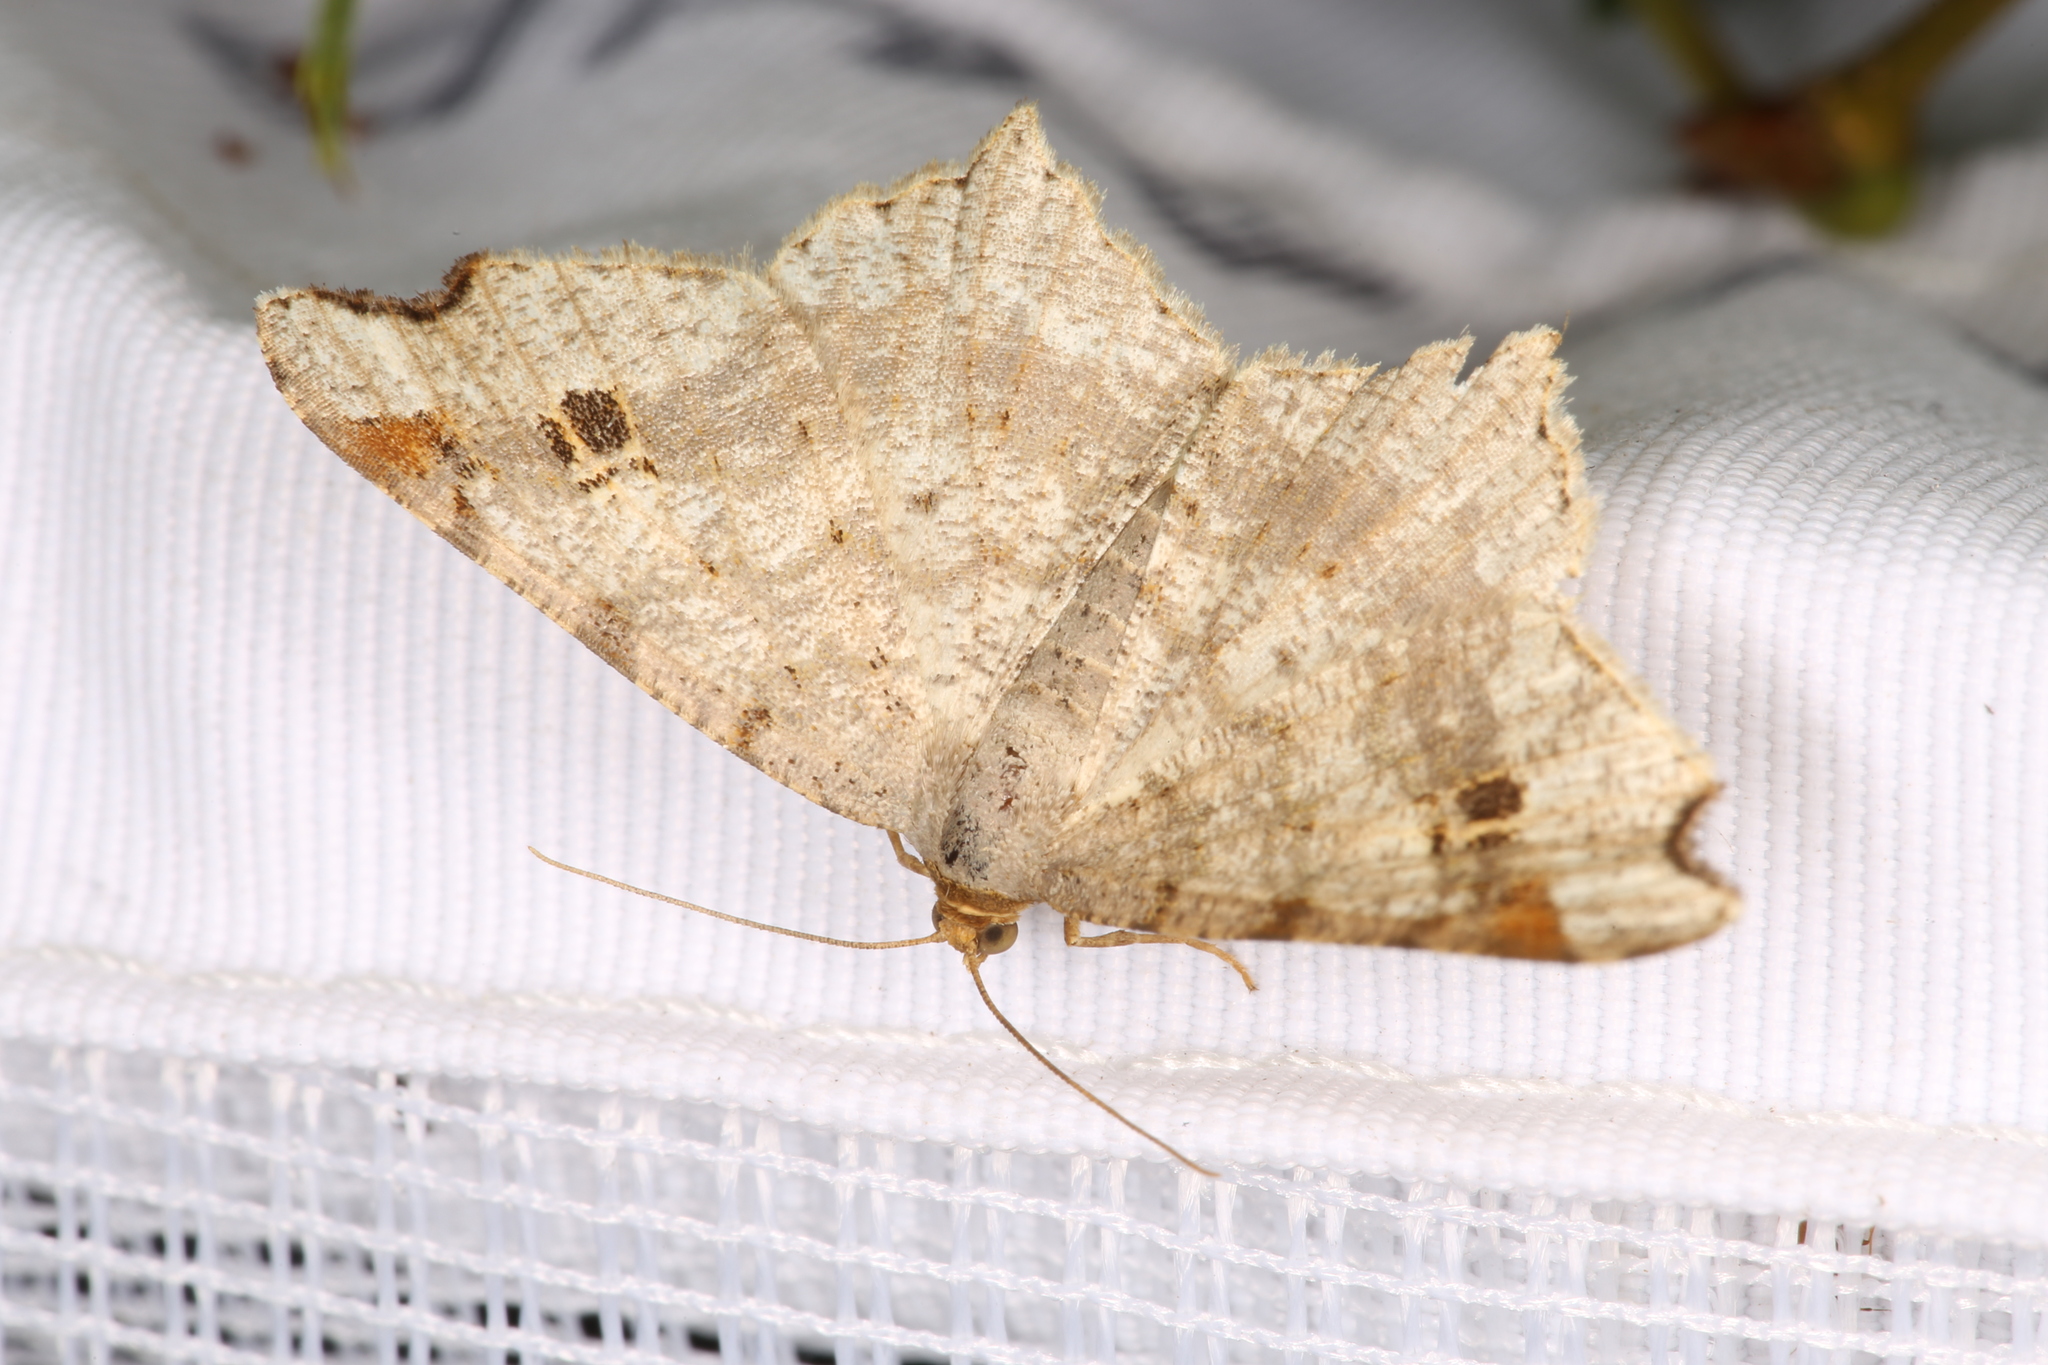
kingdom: Animalia
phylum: Arthropoda
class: Insecta
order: Lepidoptera
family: Geometridae
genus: Macaria
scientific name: Macaria alternata
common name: Sharp-angled peacock
